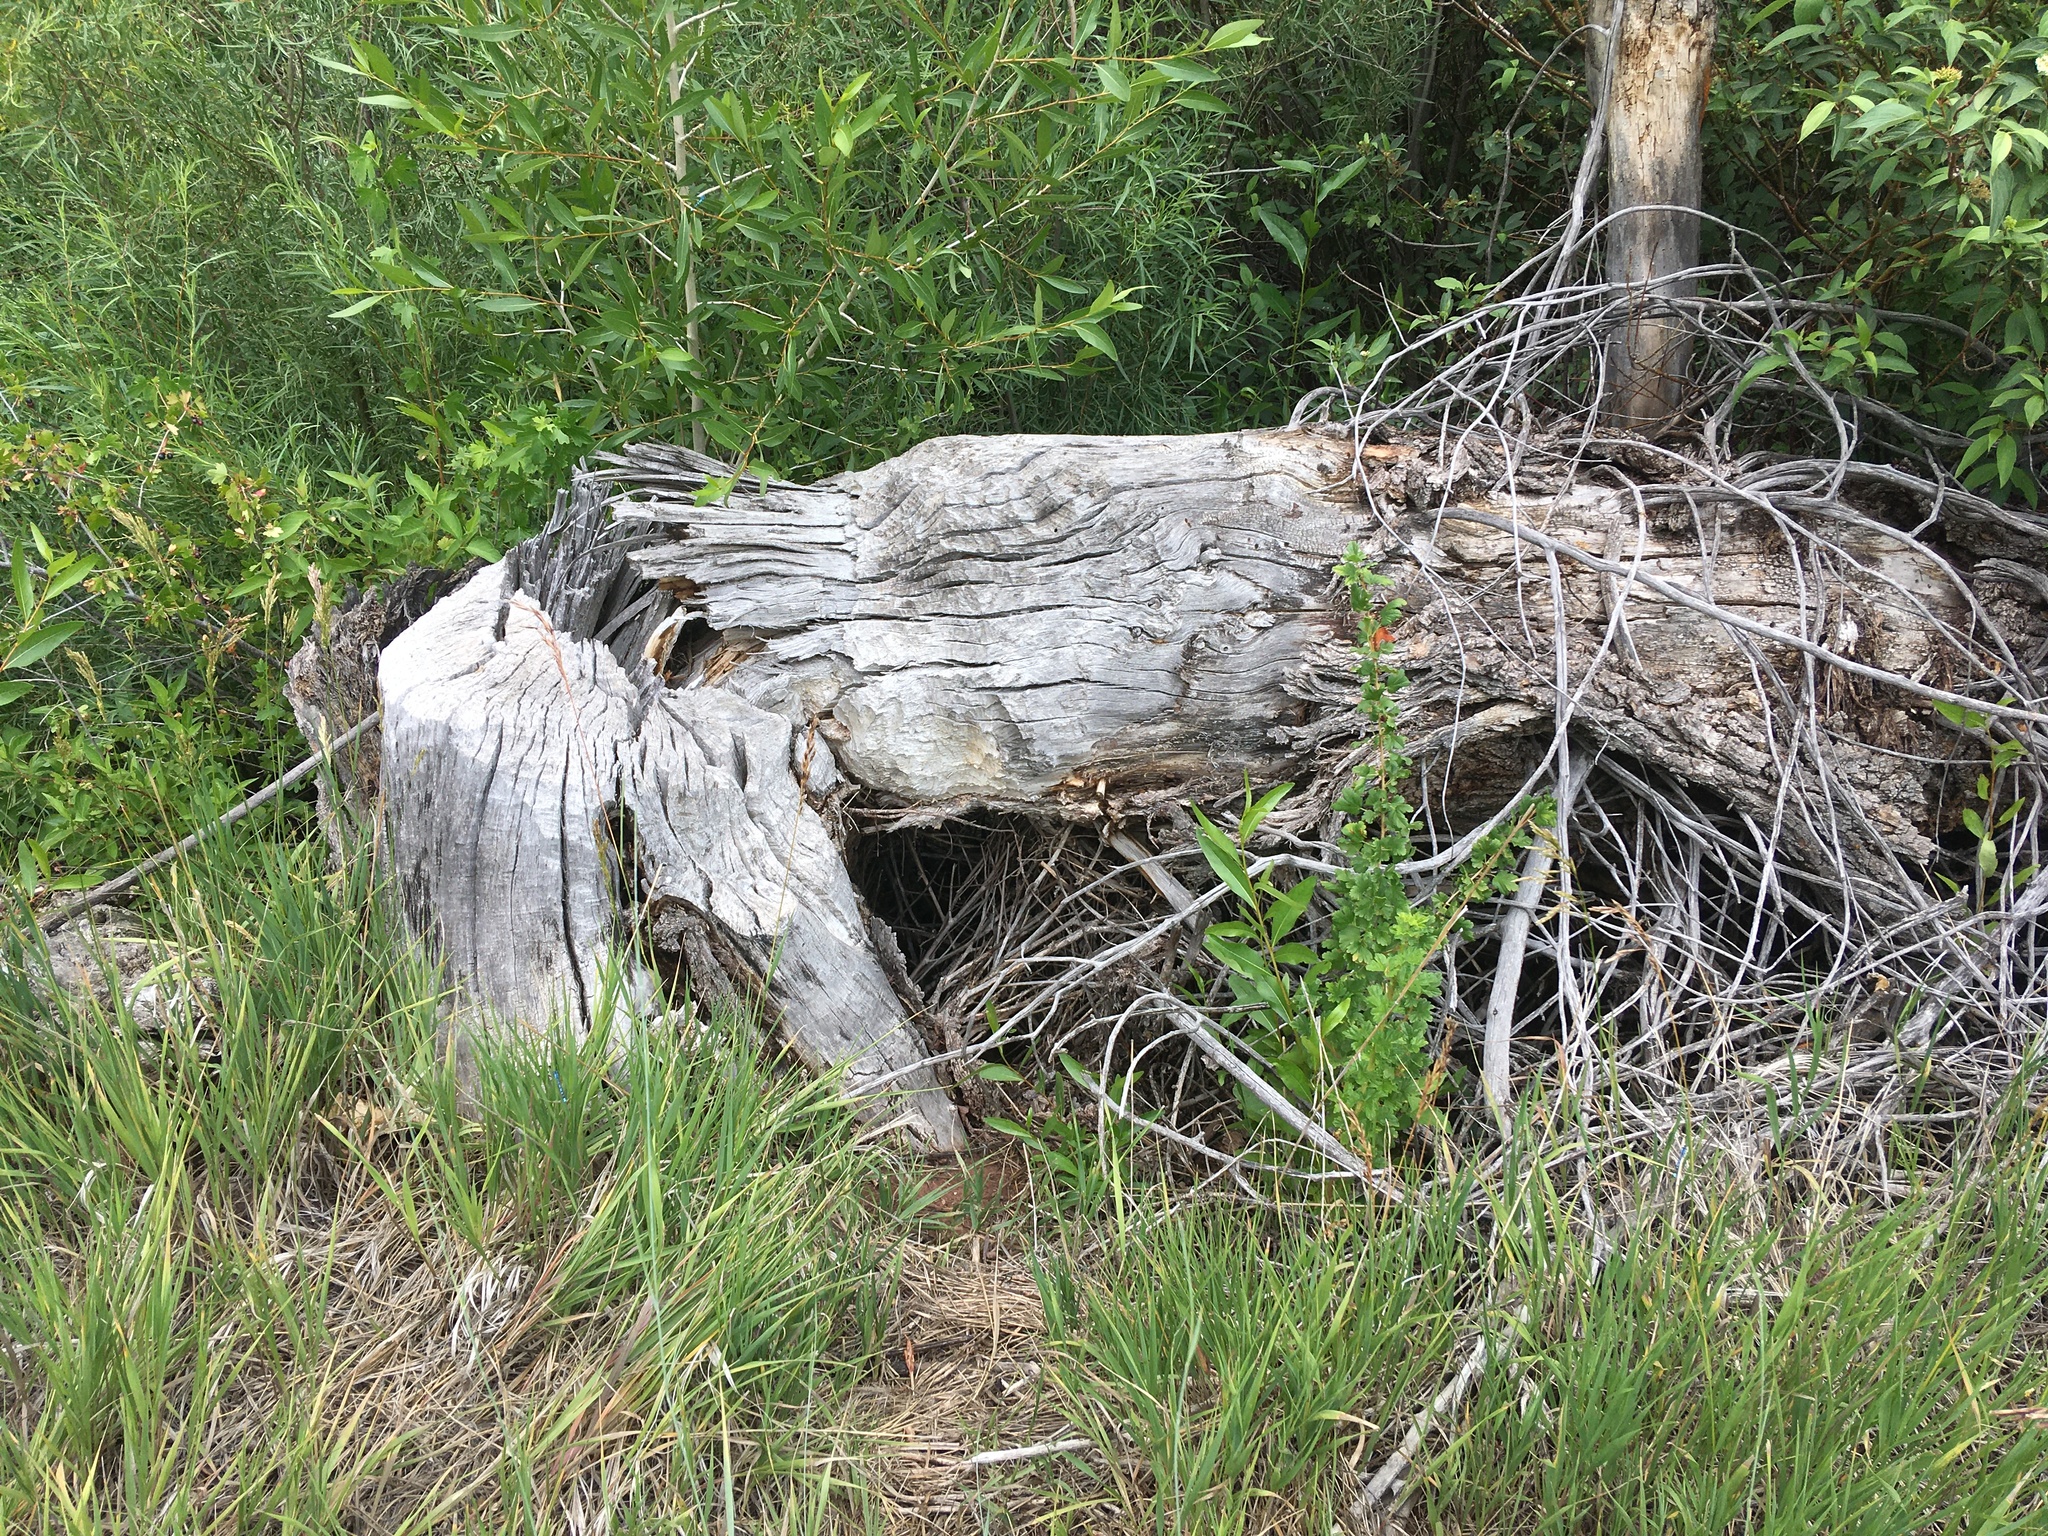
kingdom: Animalia
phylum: Chordata
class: Mammalia
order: Rodentia
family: Castoridae
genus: Castor
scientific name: Castor canadensis
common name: American beaver
